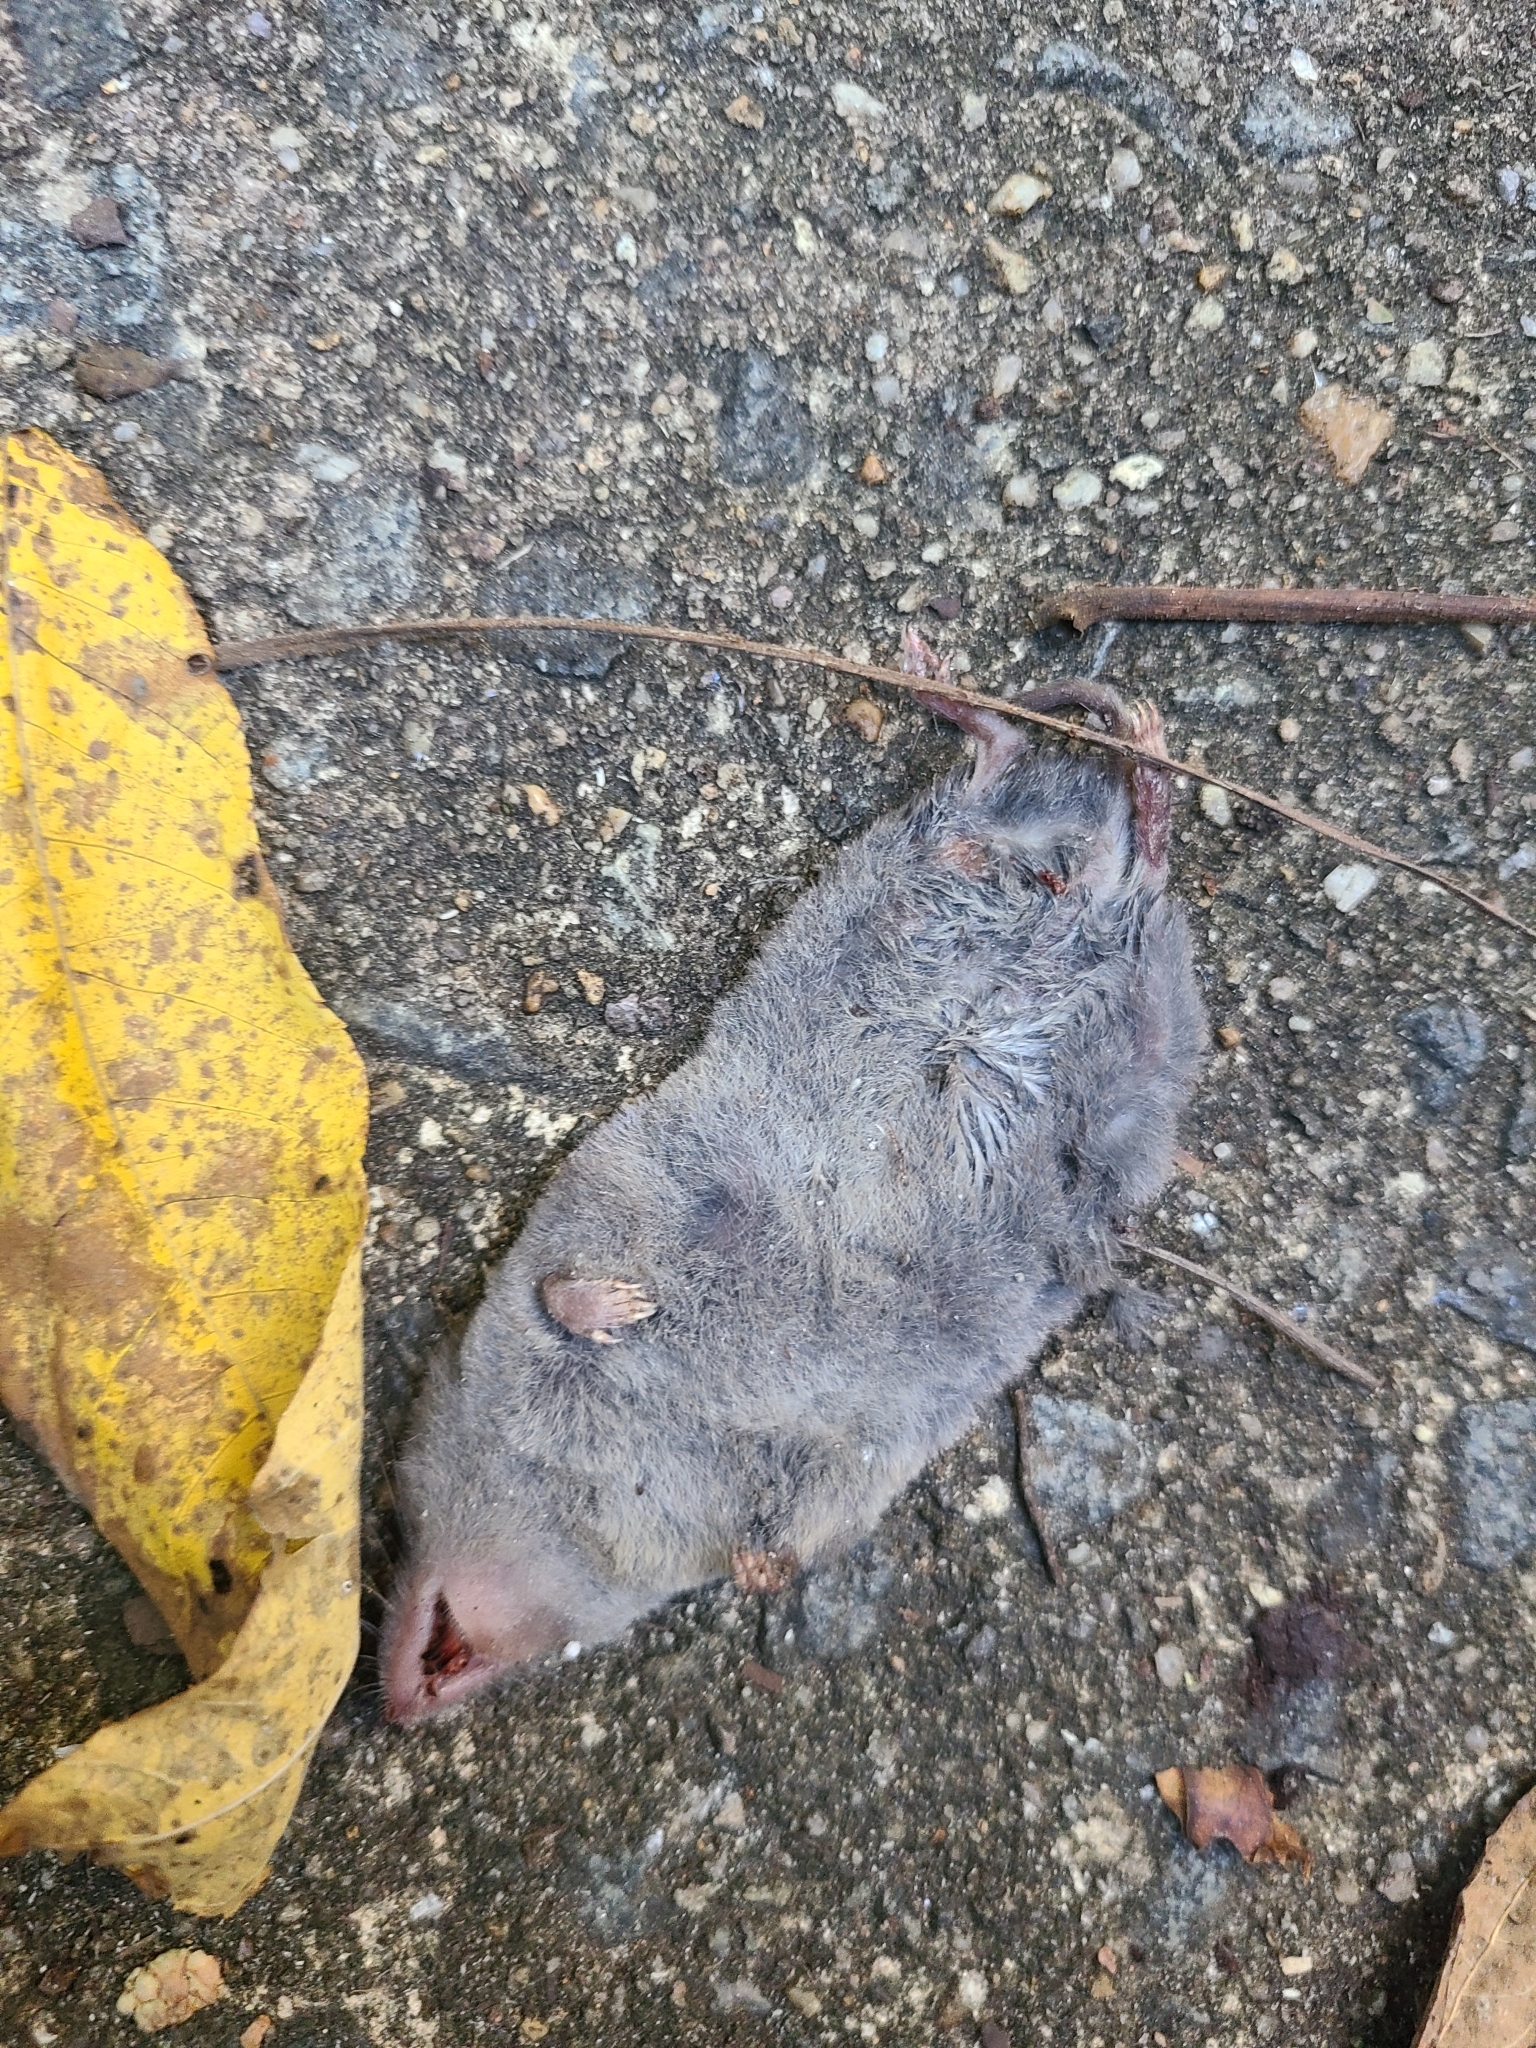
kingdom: Animalia
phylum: Chordata
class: Mammalia
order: Soricomorpha
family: Soricidae
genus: Blarina
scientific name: Blarina brevicauda
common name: Northern short-tailed shrew
